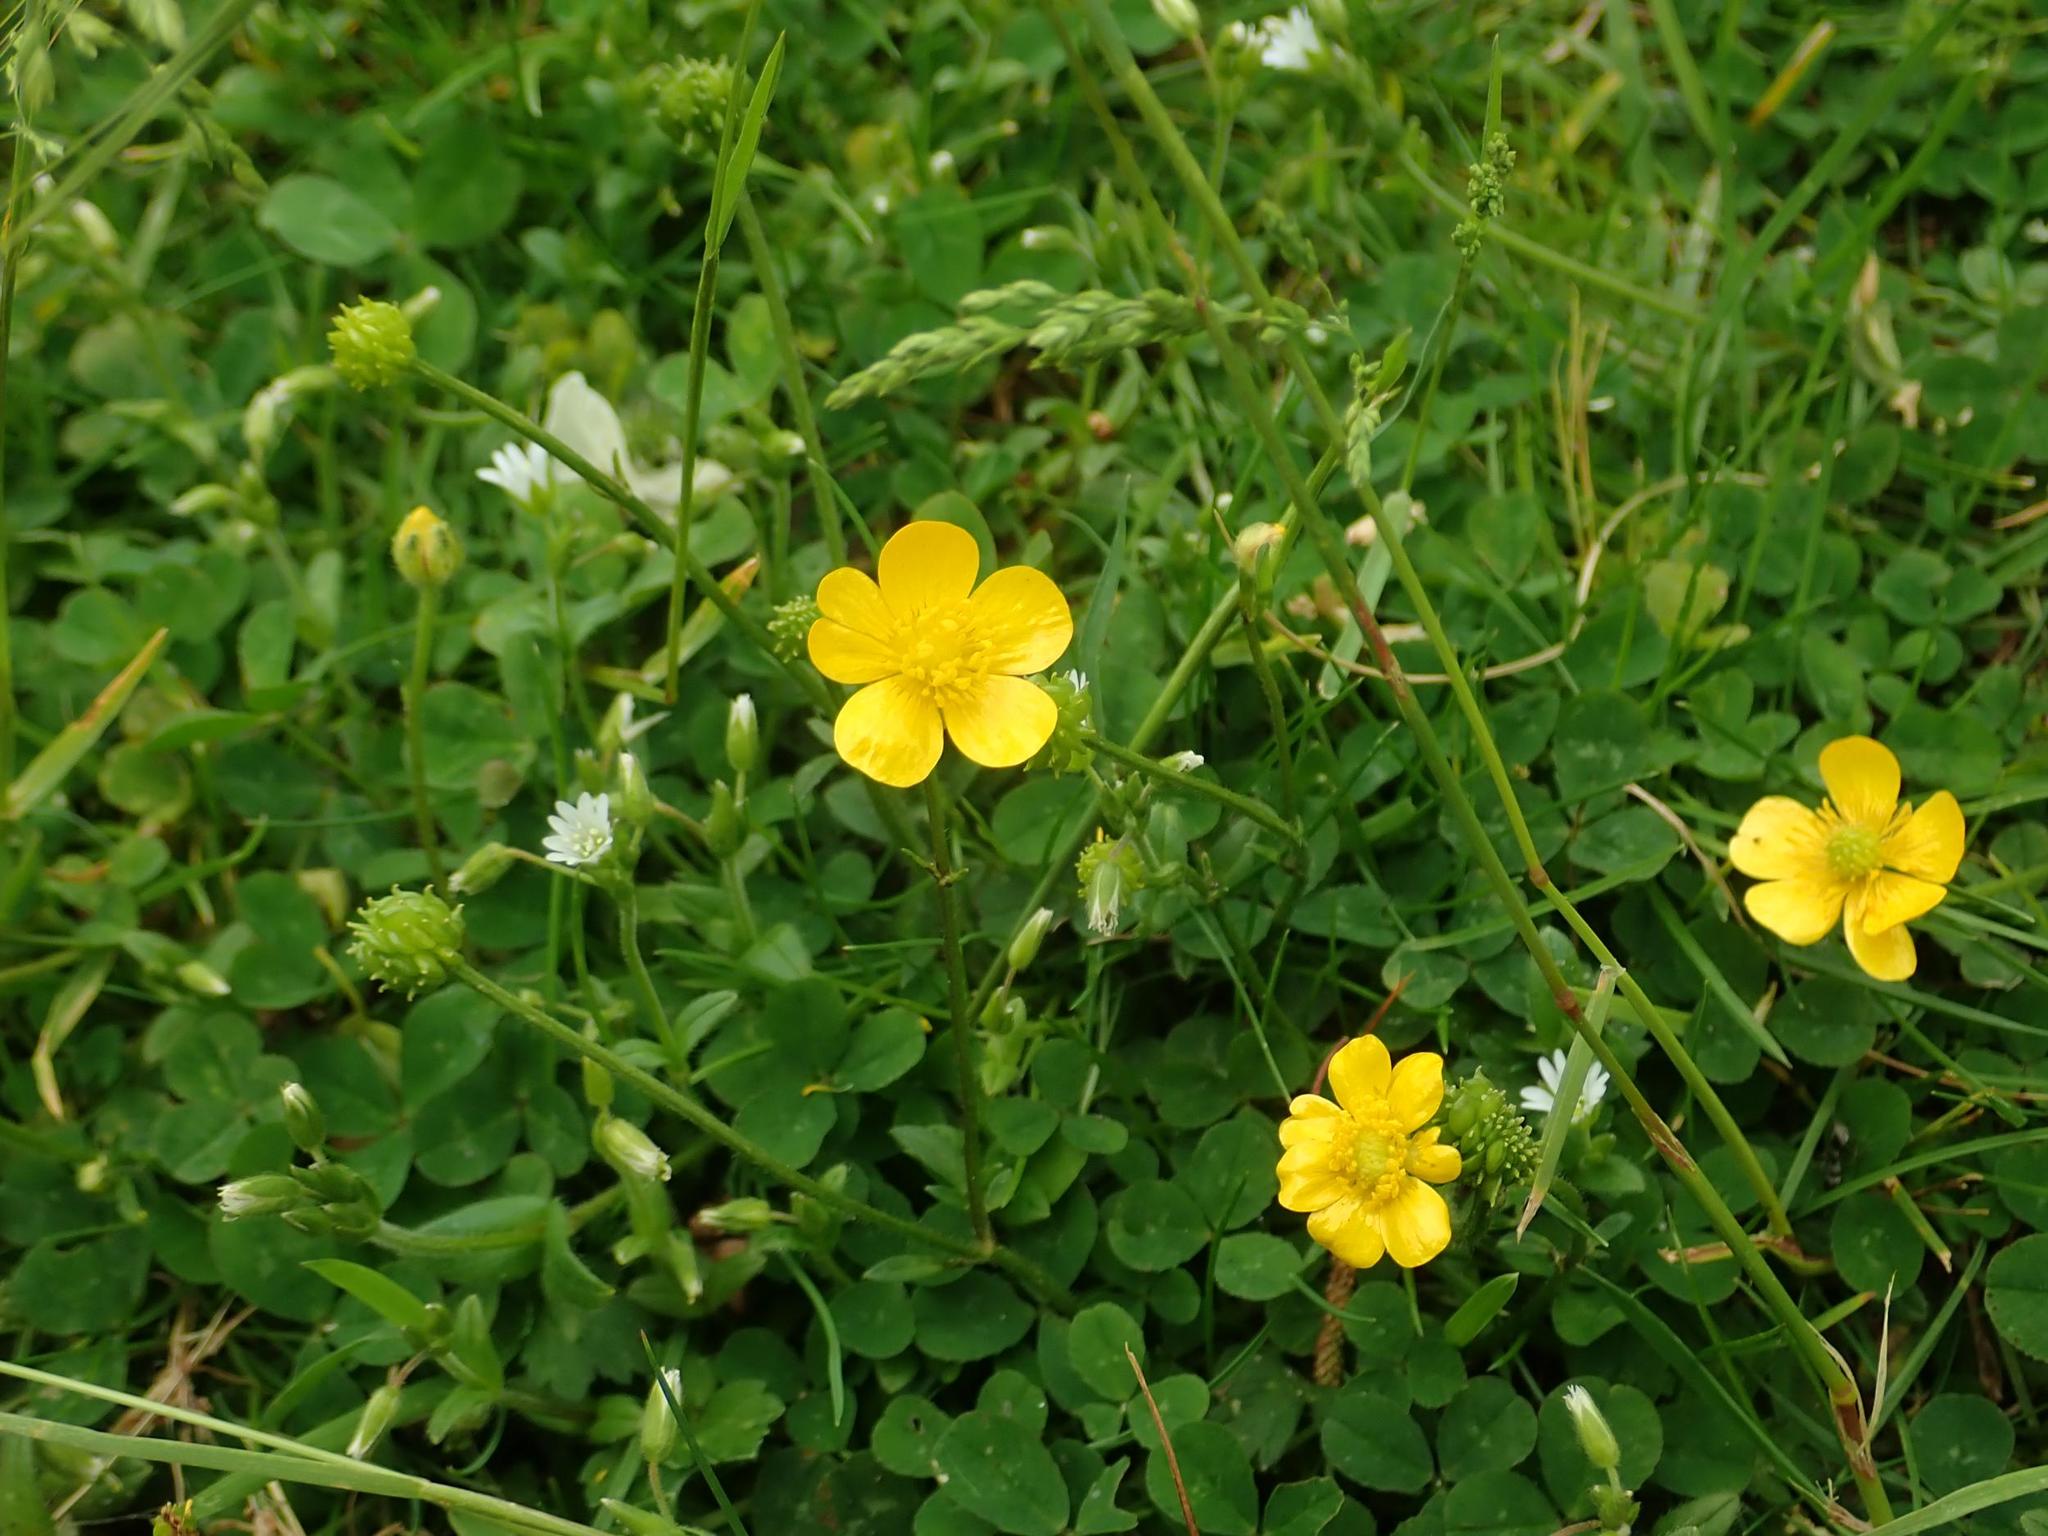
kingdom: Plantae
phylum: Tracheophyta
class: Magnoliopsida
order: Ranunculales
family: Ranunculaceae
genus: Ranunculus
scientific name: Ranunculus repens
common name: Creeping buttercup
